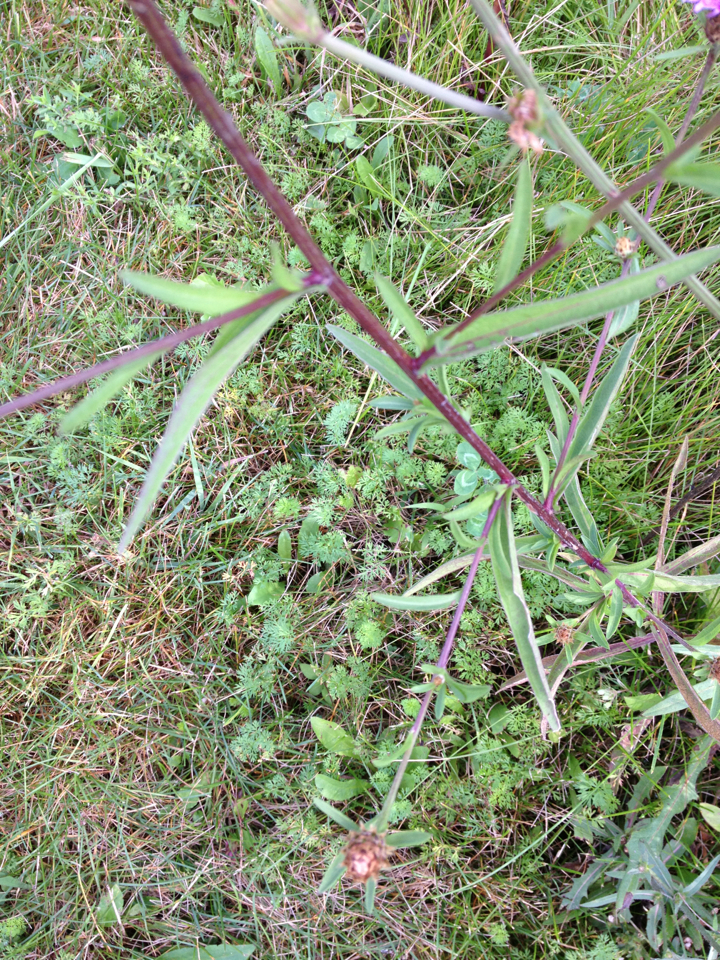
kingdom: Plantae
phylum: Tracheophyta
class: Magnoliopsida
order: Asterales
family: Asteraceae
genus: Centaurea
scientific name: Centaurea jacea
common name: Brown knapweed
